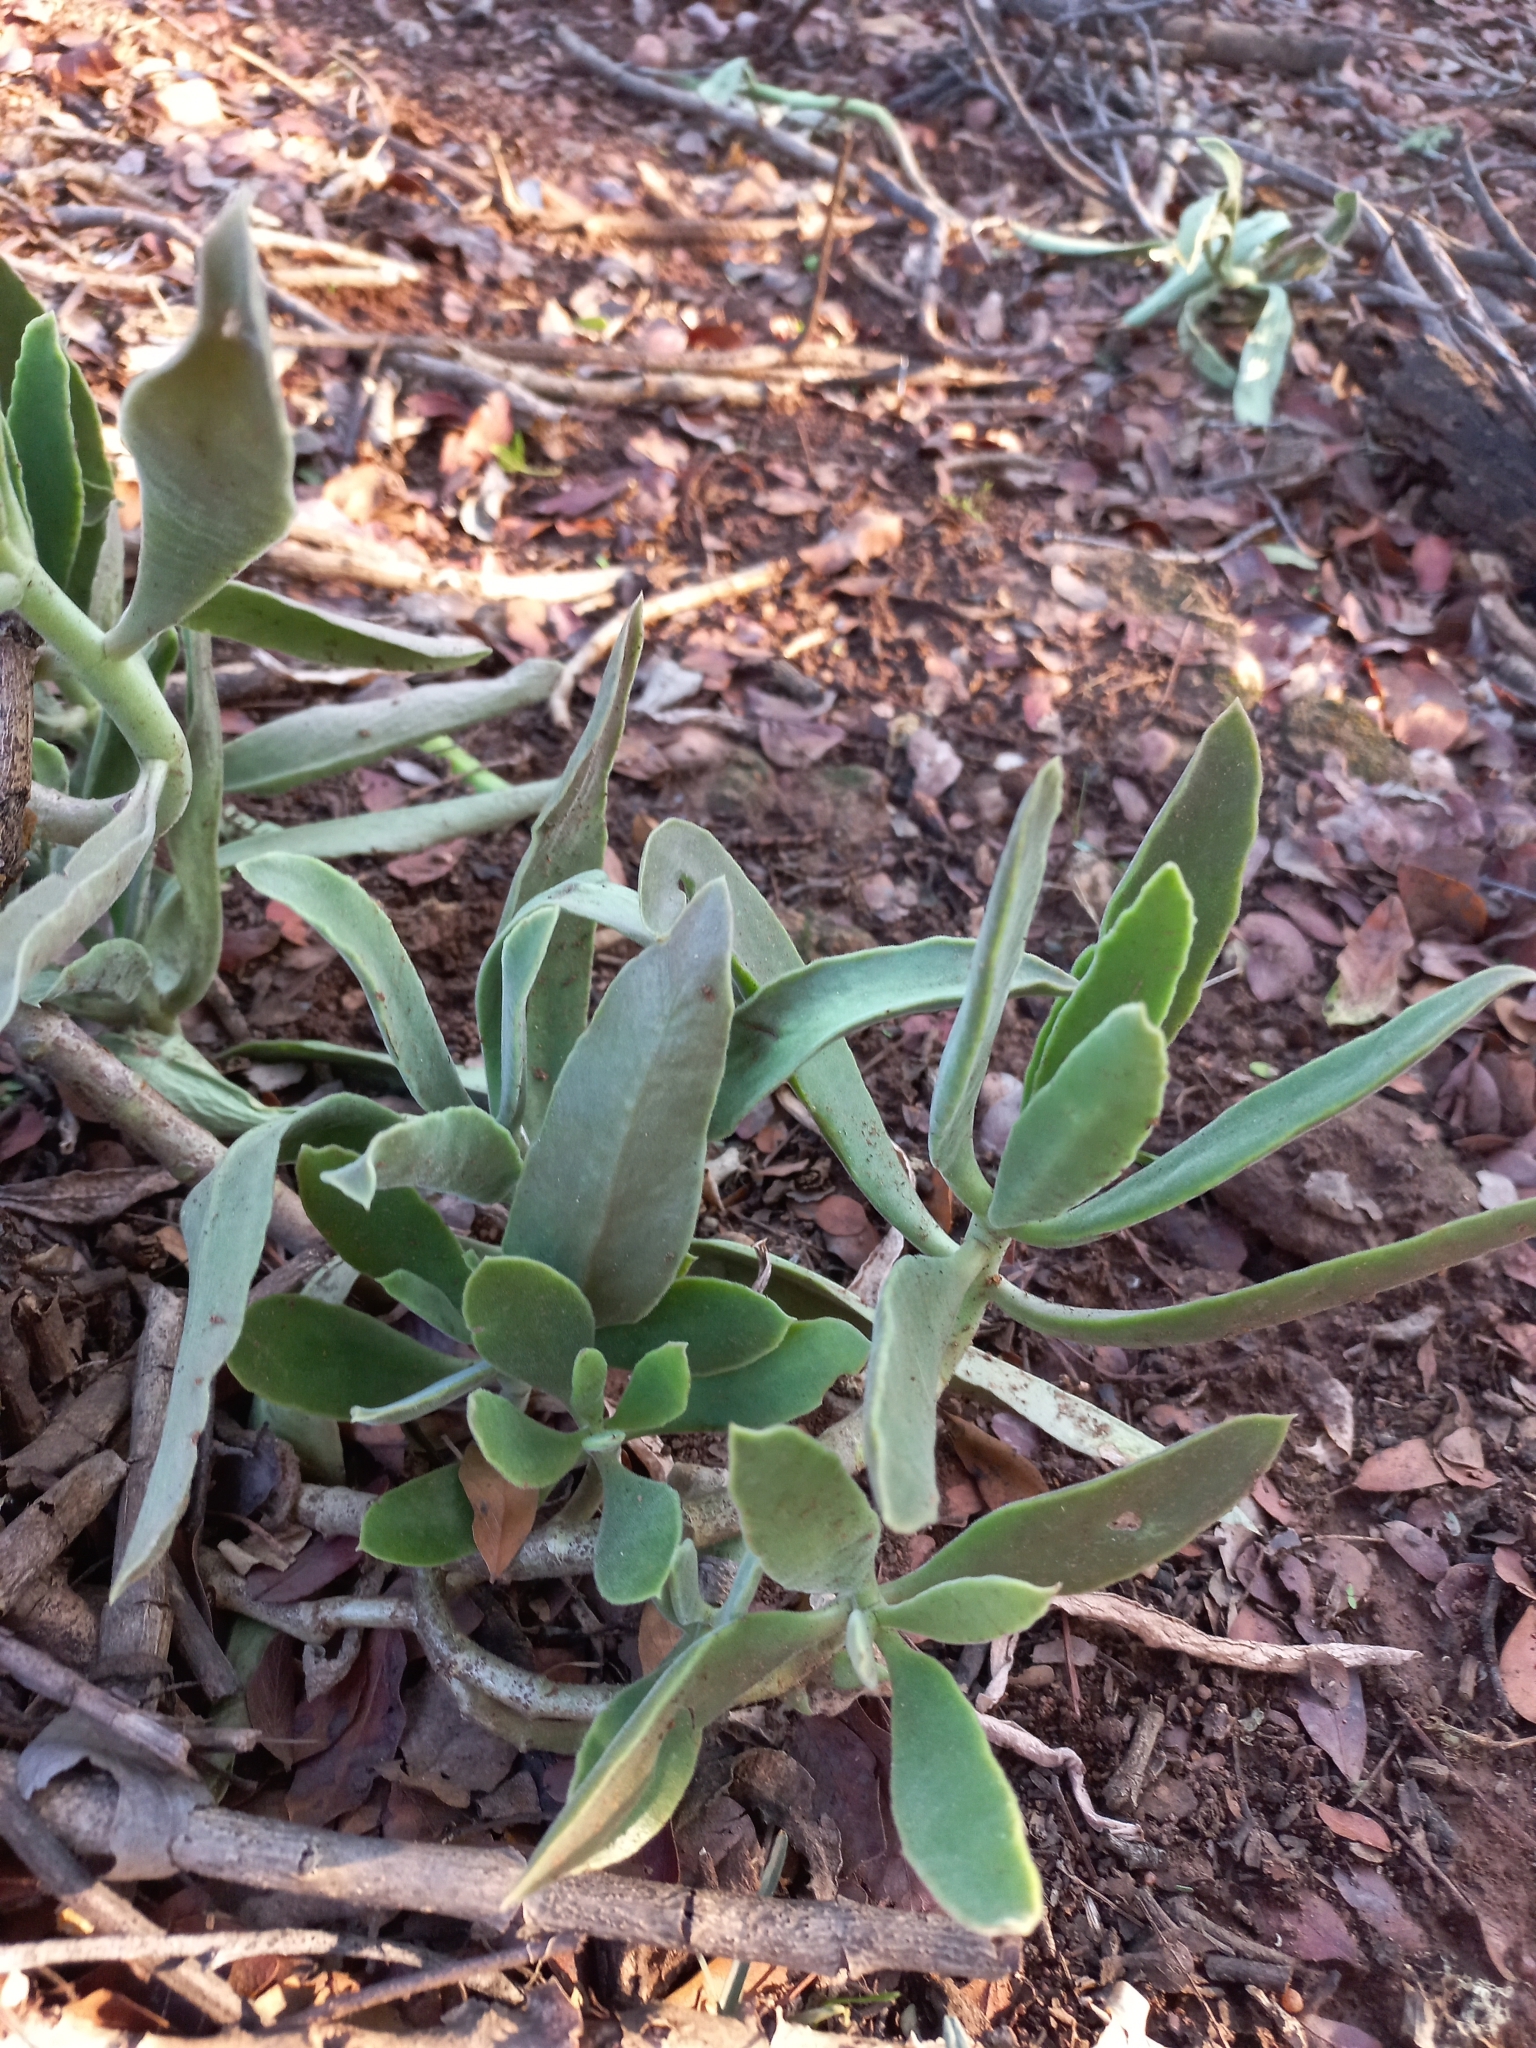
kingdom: Plantae
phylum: Tracheophyta
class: Magnoliopsida
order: Saxifragales
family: Crassulaceae
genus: Cotyledon
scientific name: Cotyledon barbeyi
